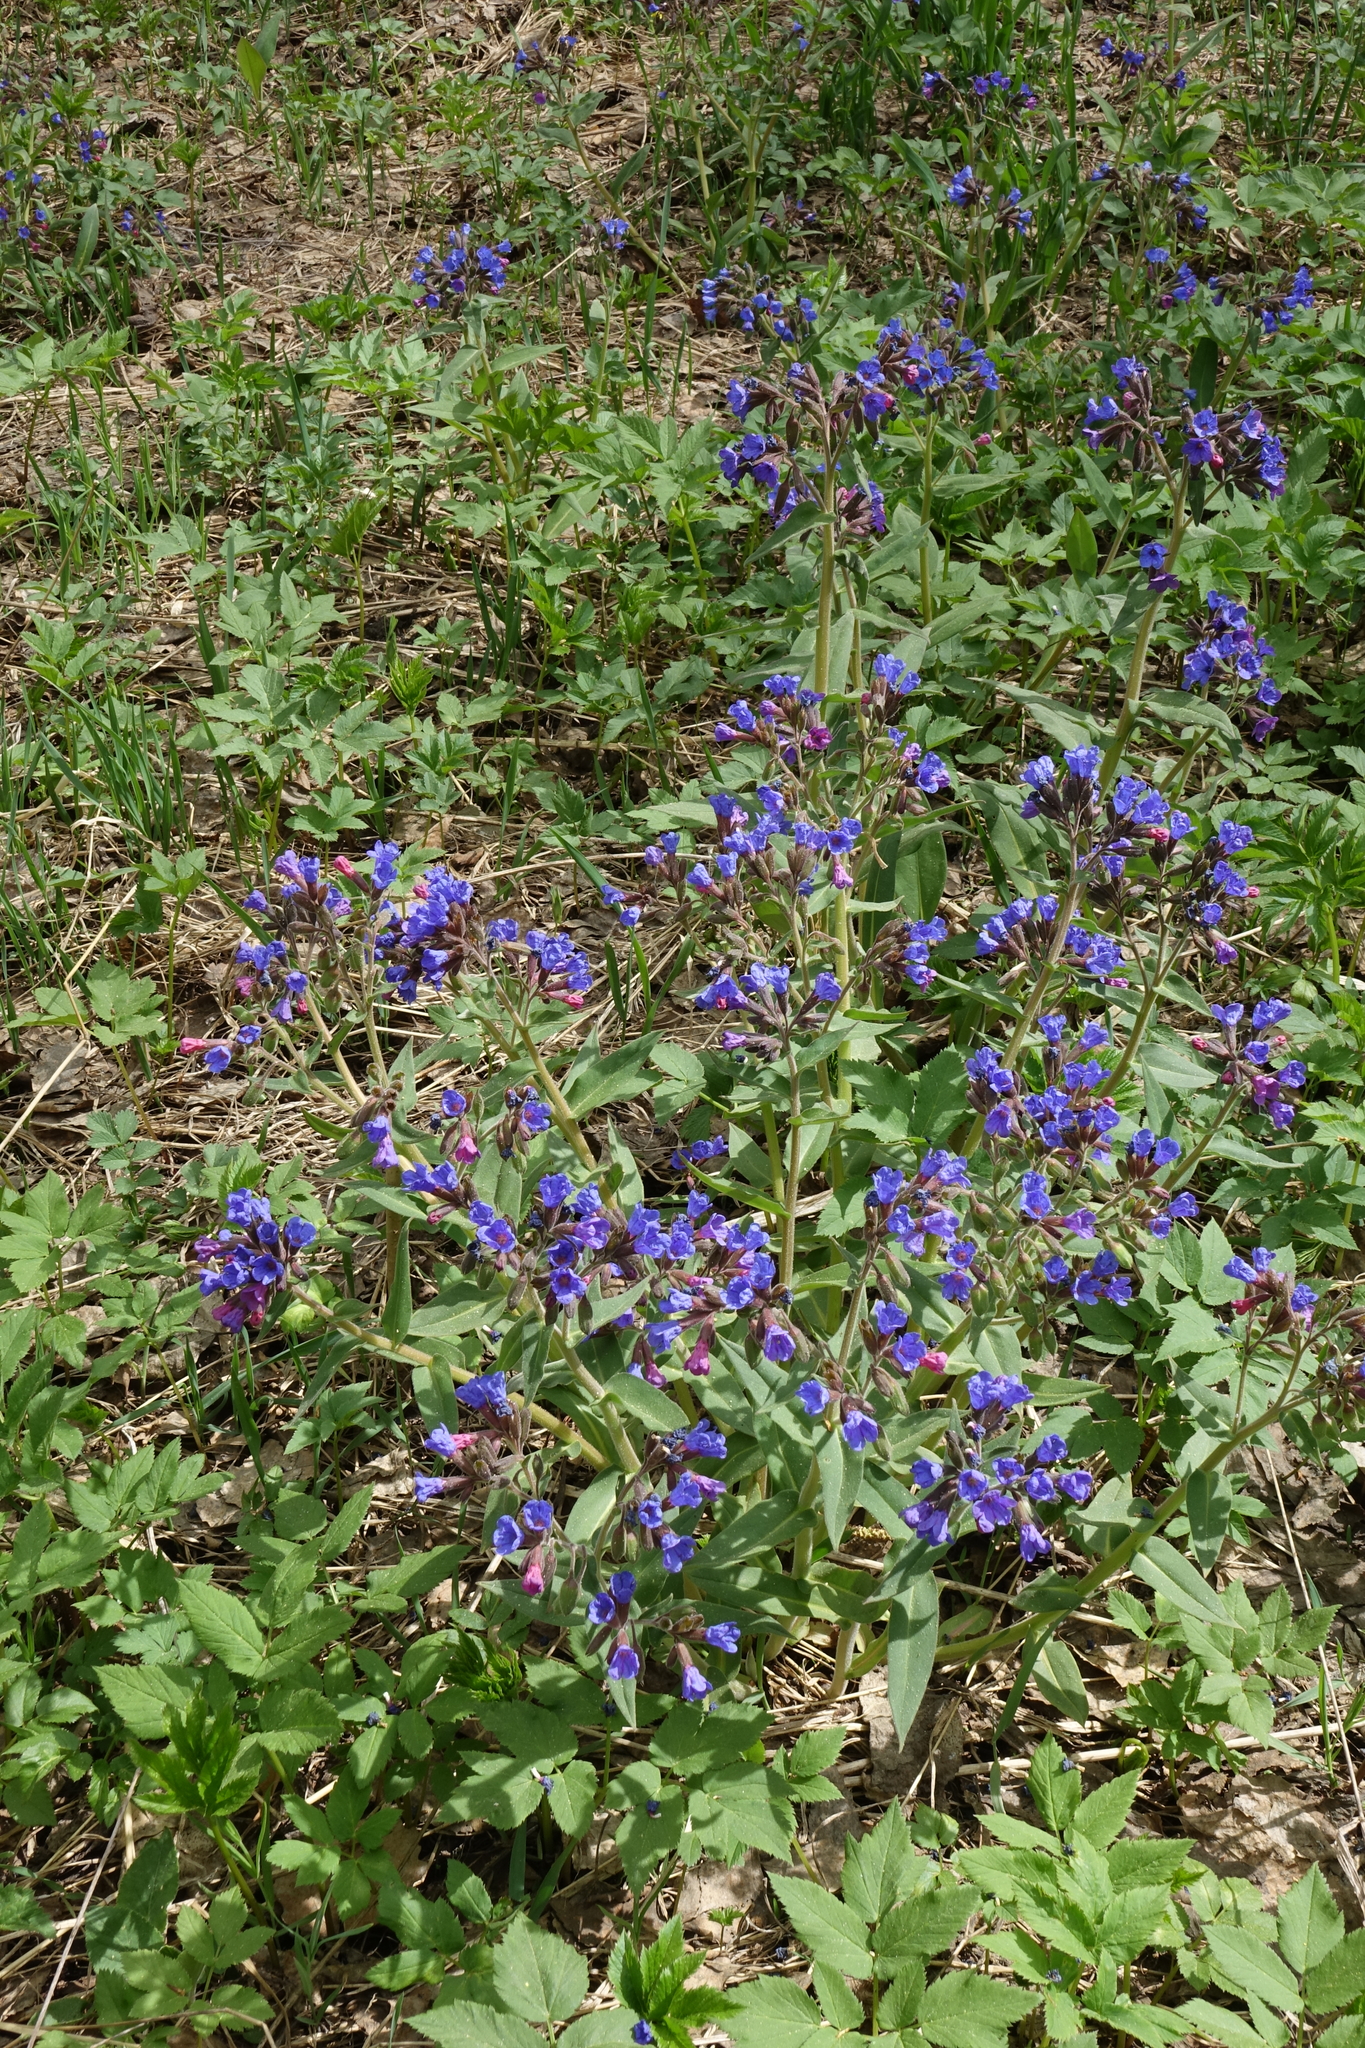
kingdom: Plantae
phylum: Tracheophyta
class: Magnoliopsida
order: Boraginales
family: Boraginaceae
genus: Pulmonaria
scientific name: Pulmonaria mollis
